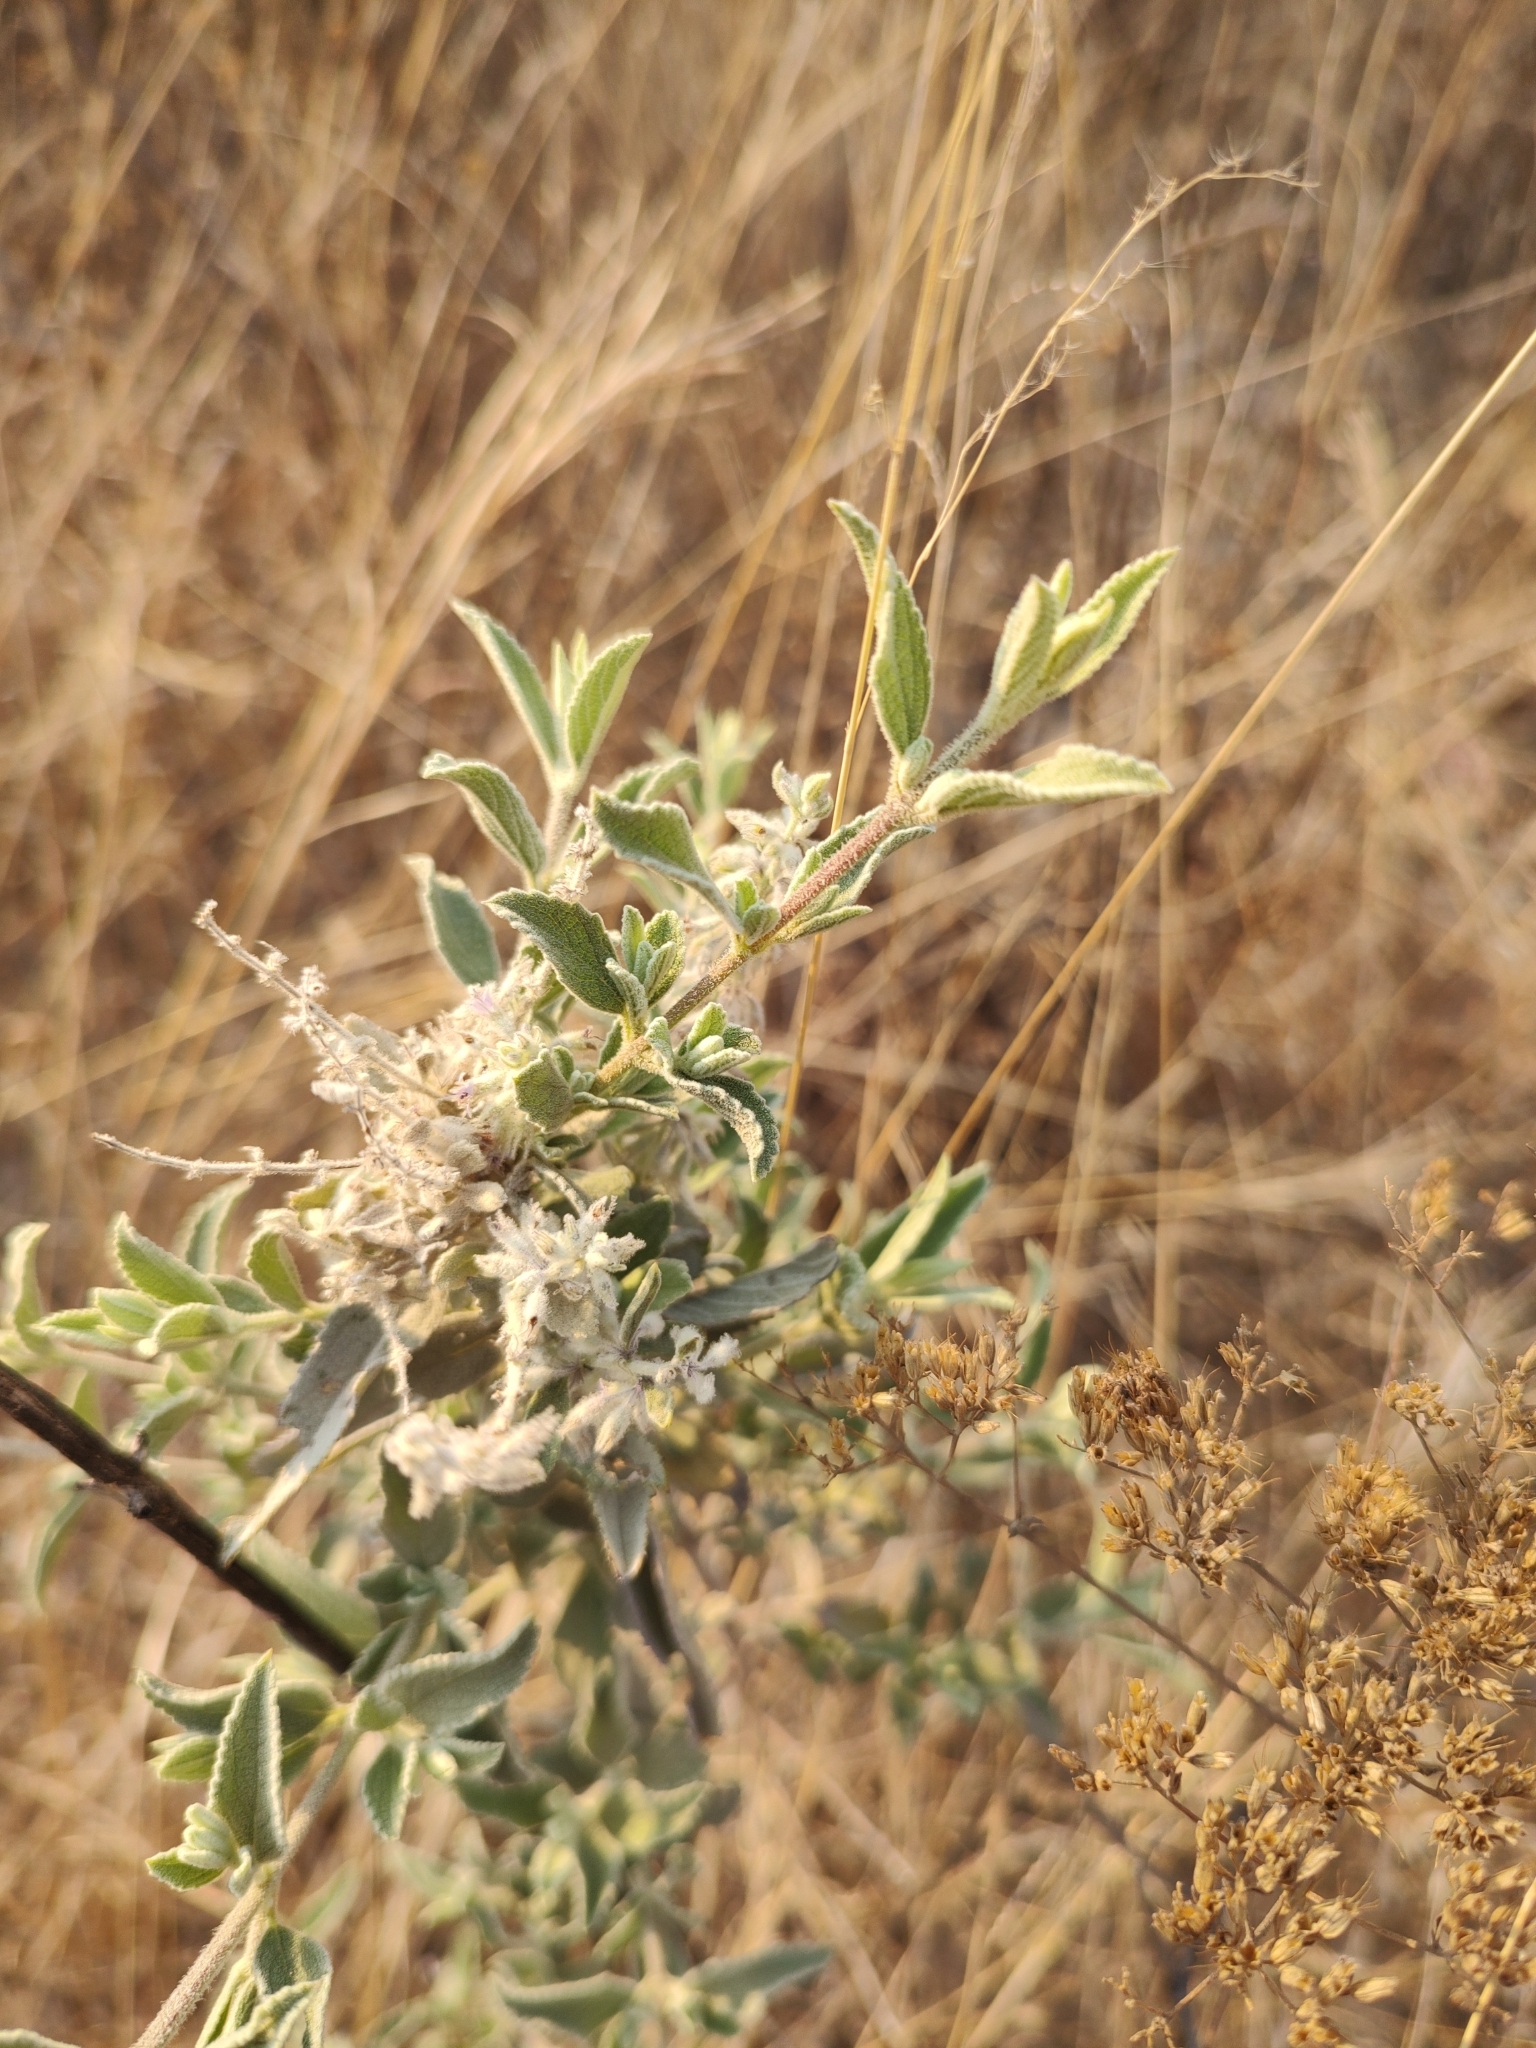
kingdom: Plantae
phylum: Tracheophyta
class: Magnoliopsida
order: Lamiales
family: Lamiaceae
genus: Condea
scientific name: Condea albida
